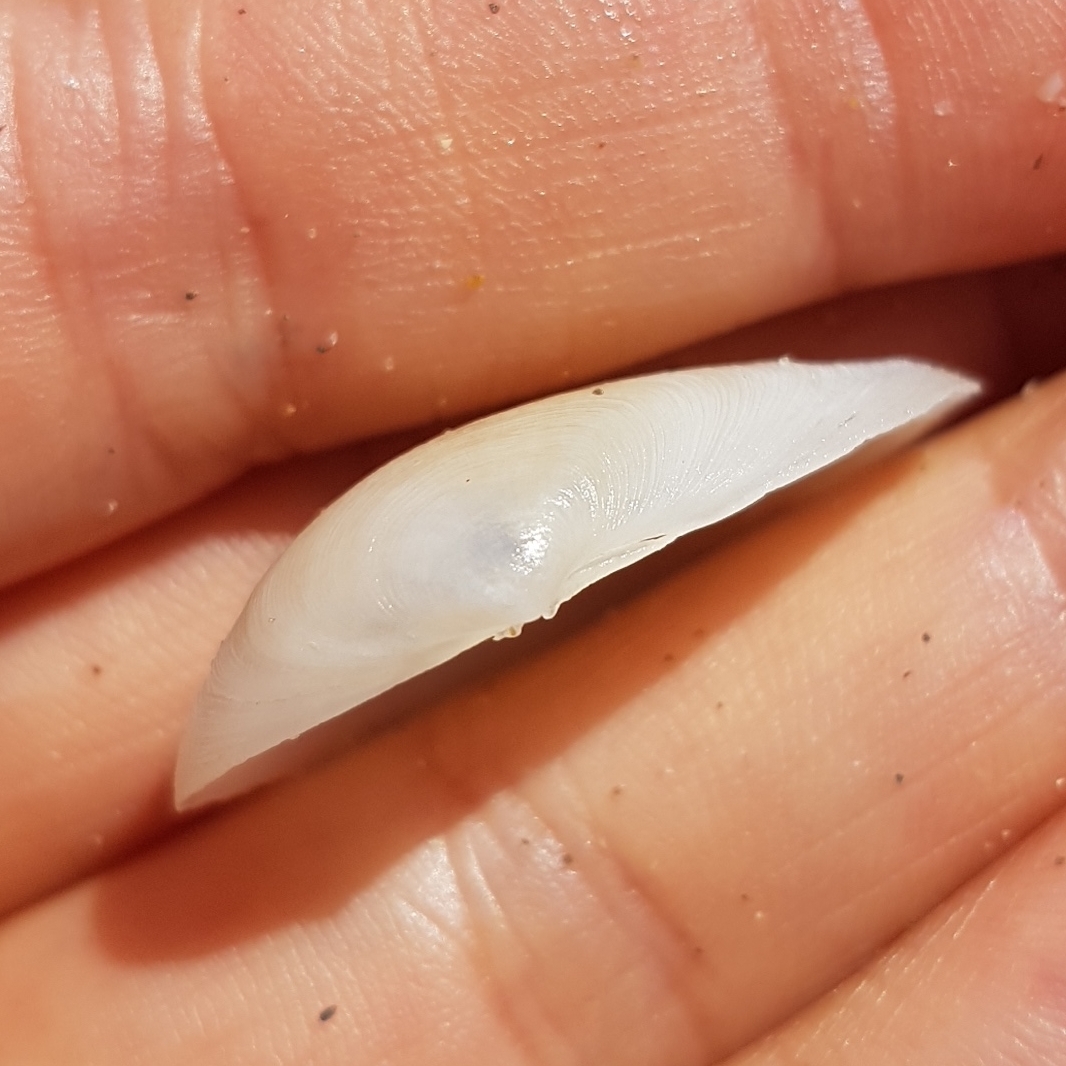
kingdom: Animalia
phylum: Mollusca
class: Bivalvia
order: Cardiida
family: Tellinidae
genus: Gastrana
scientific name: Gastrana fragilis
